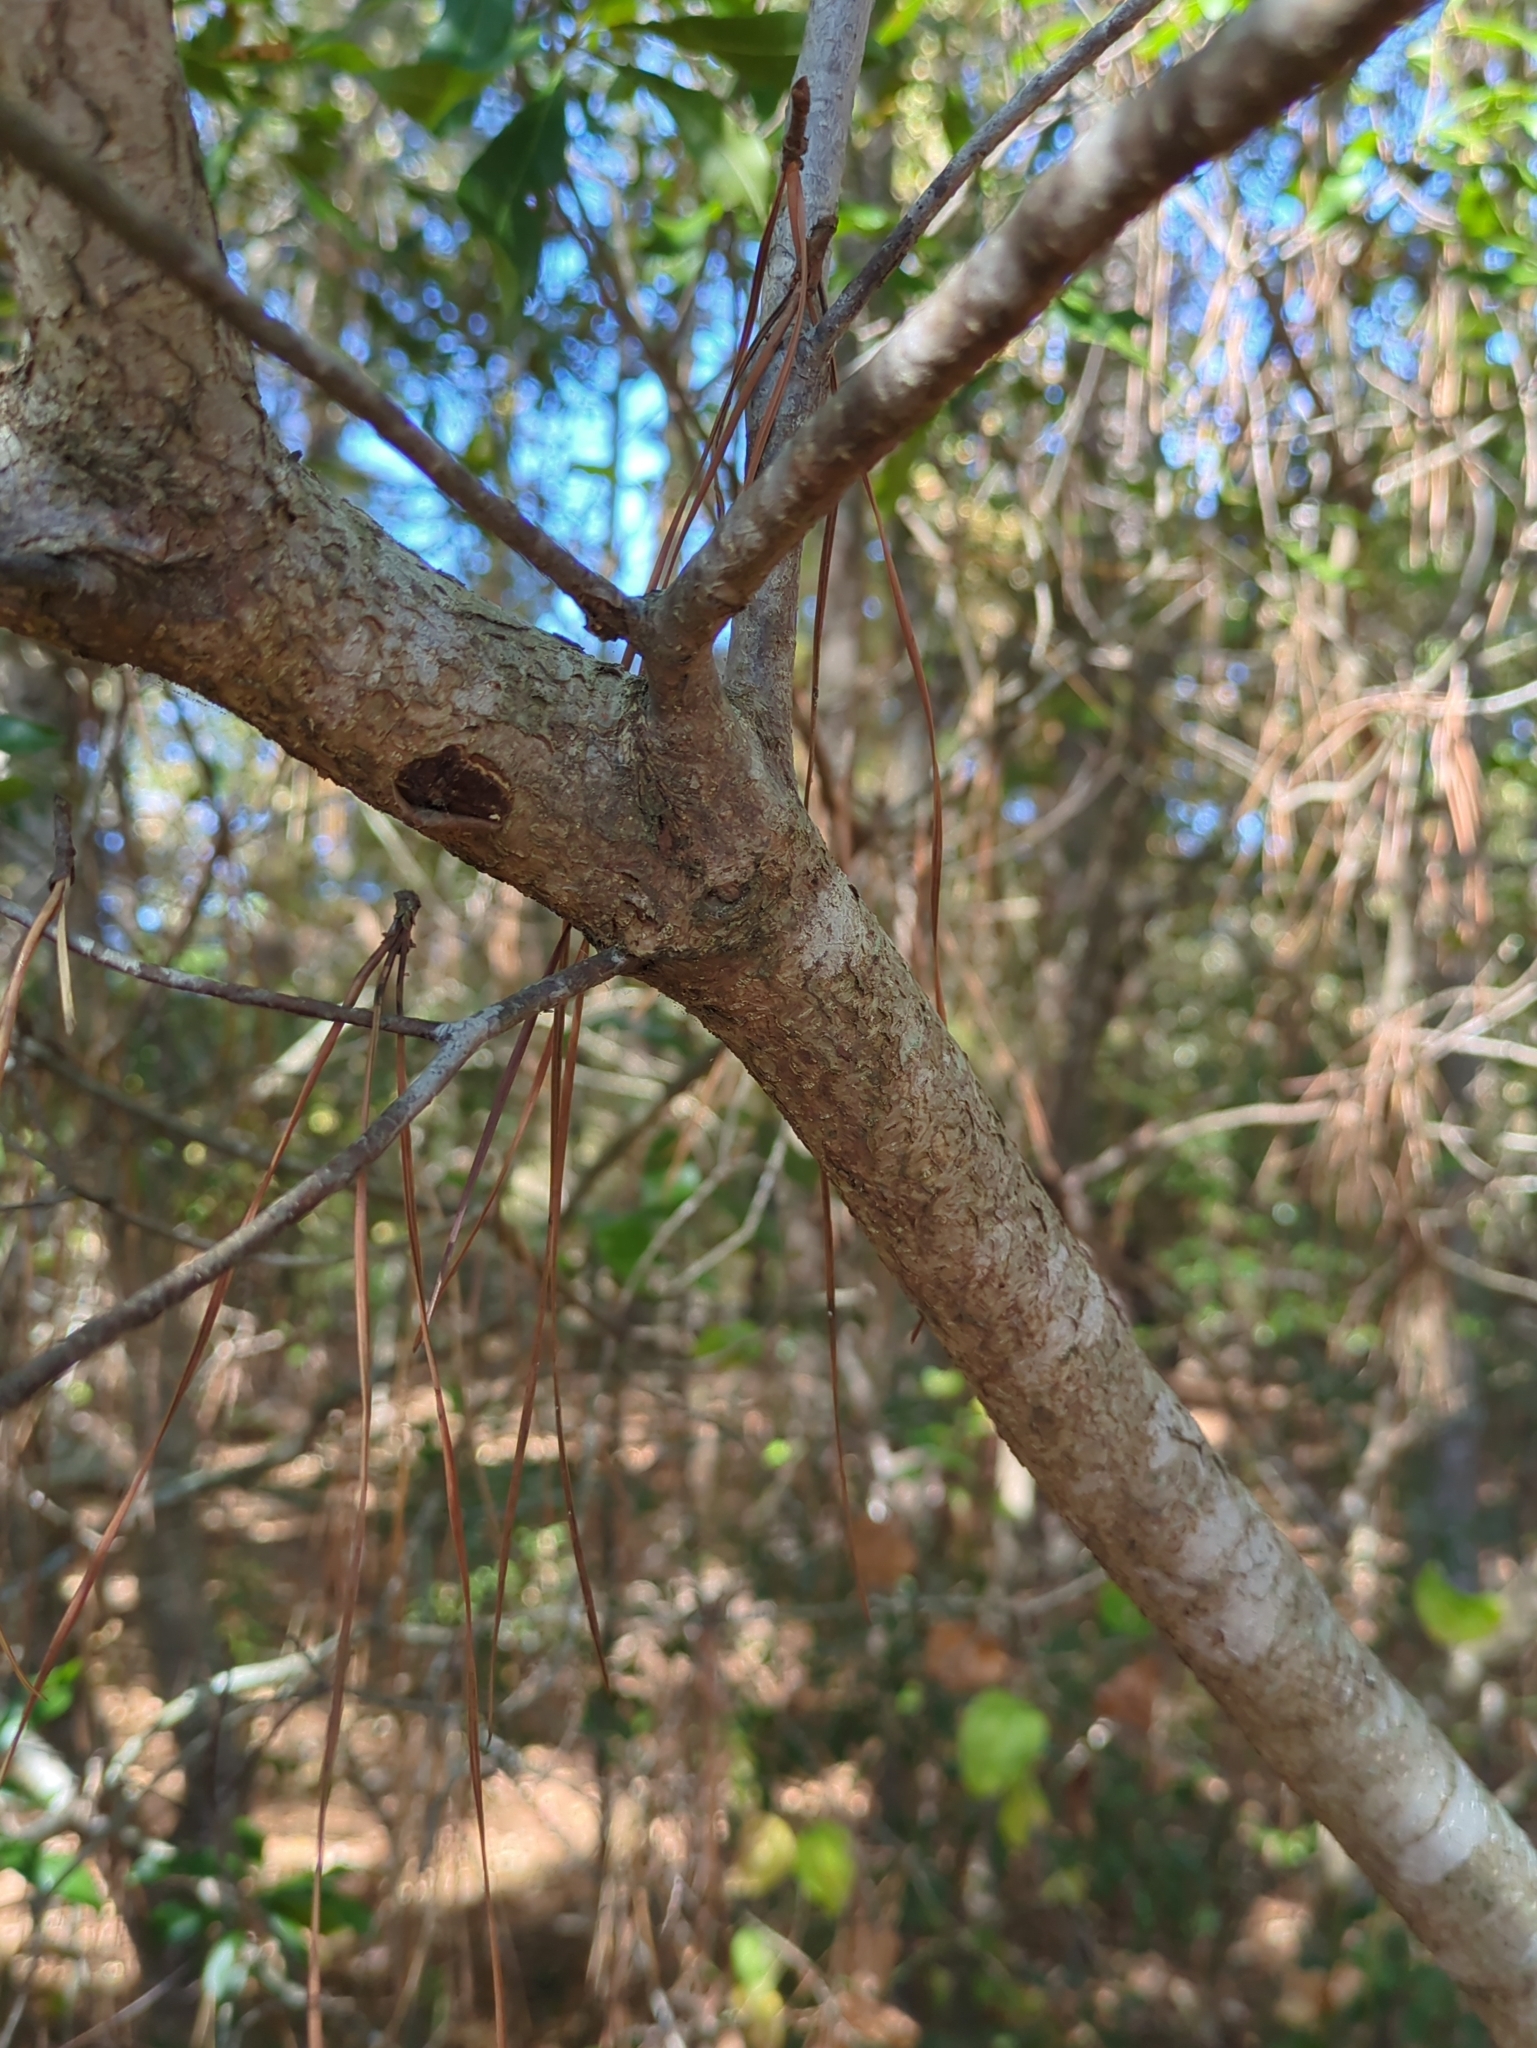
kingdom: Plantae
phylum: Tracheophyta
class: Magnoliopsida
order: Fagales
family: Myricaceae
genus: Morella
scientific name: Morella cerifera
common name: Wax myrtle
